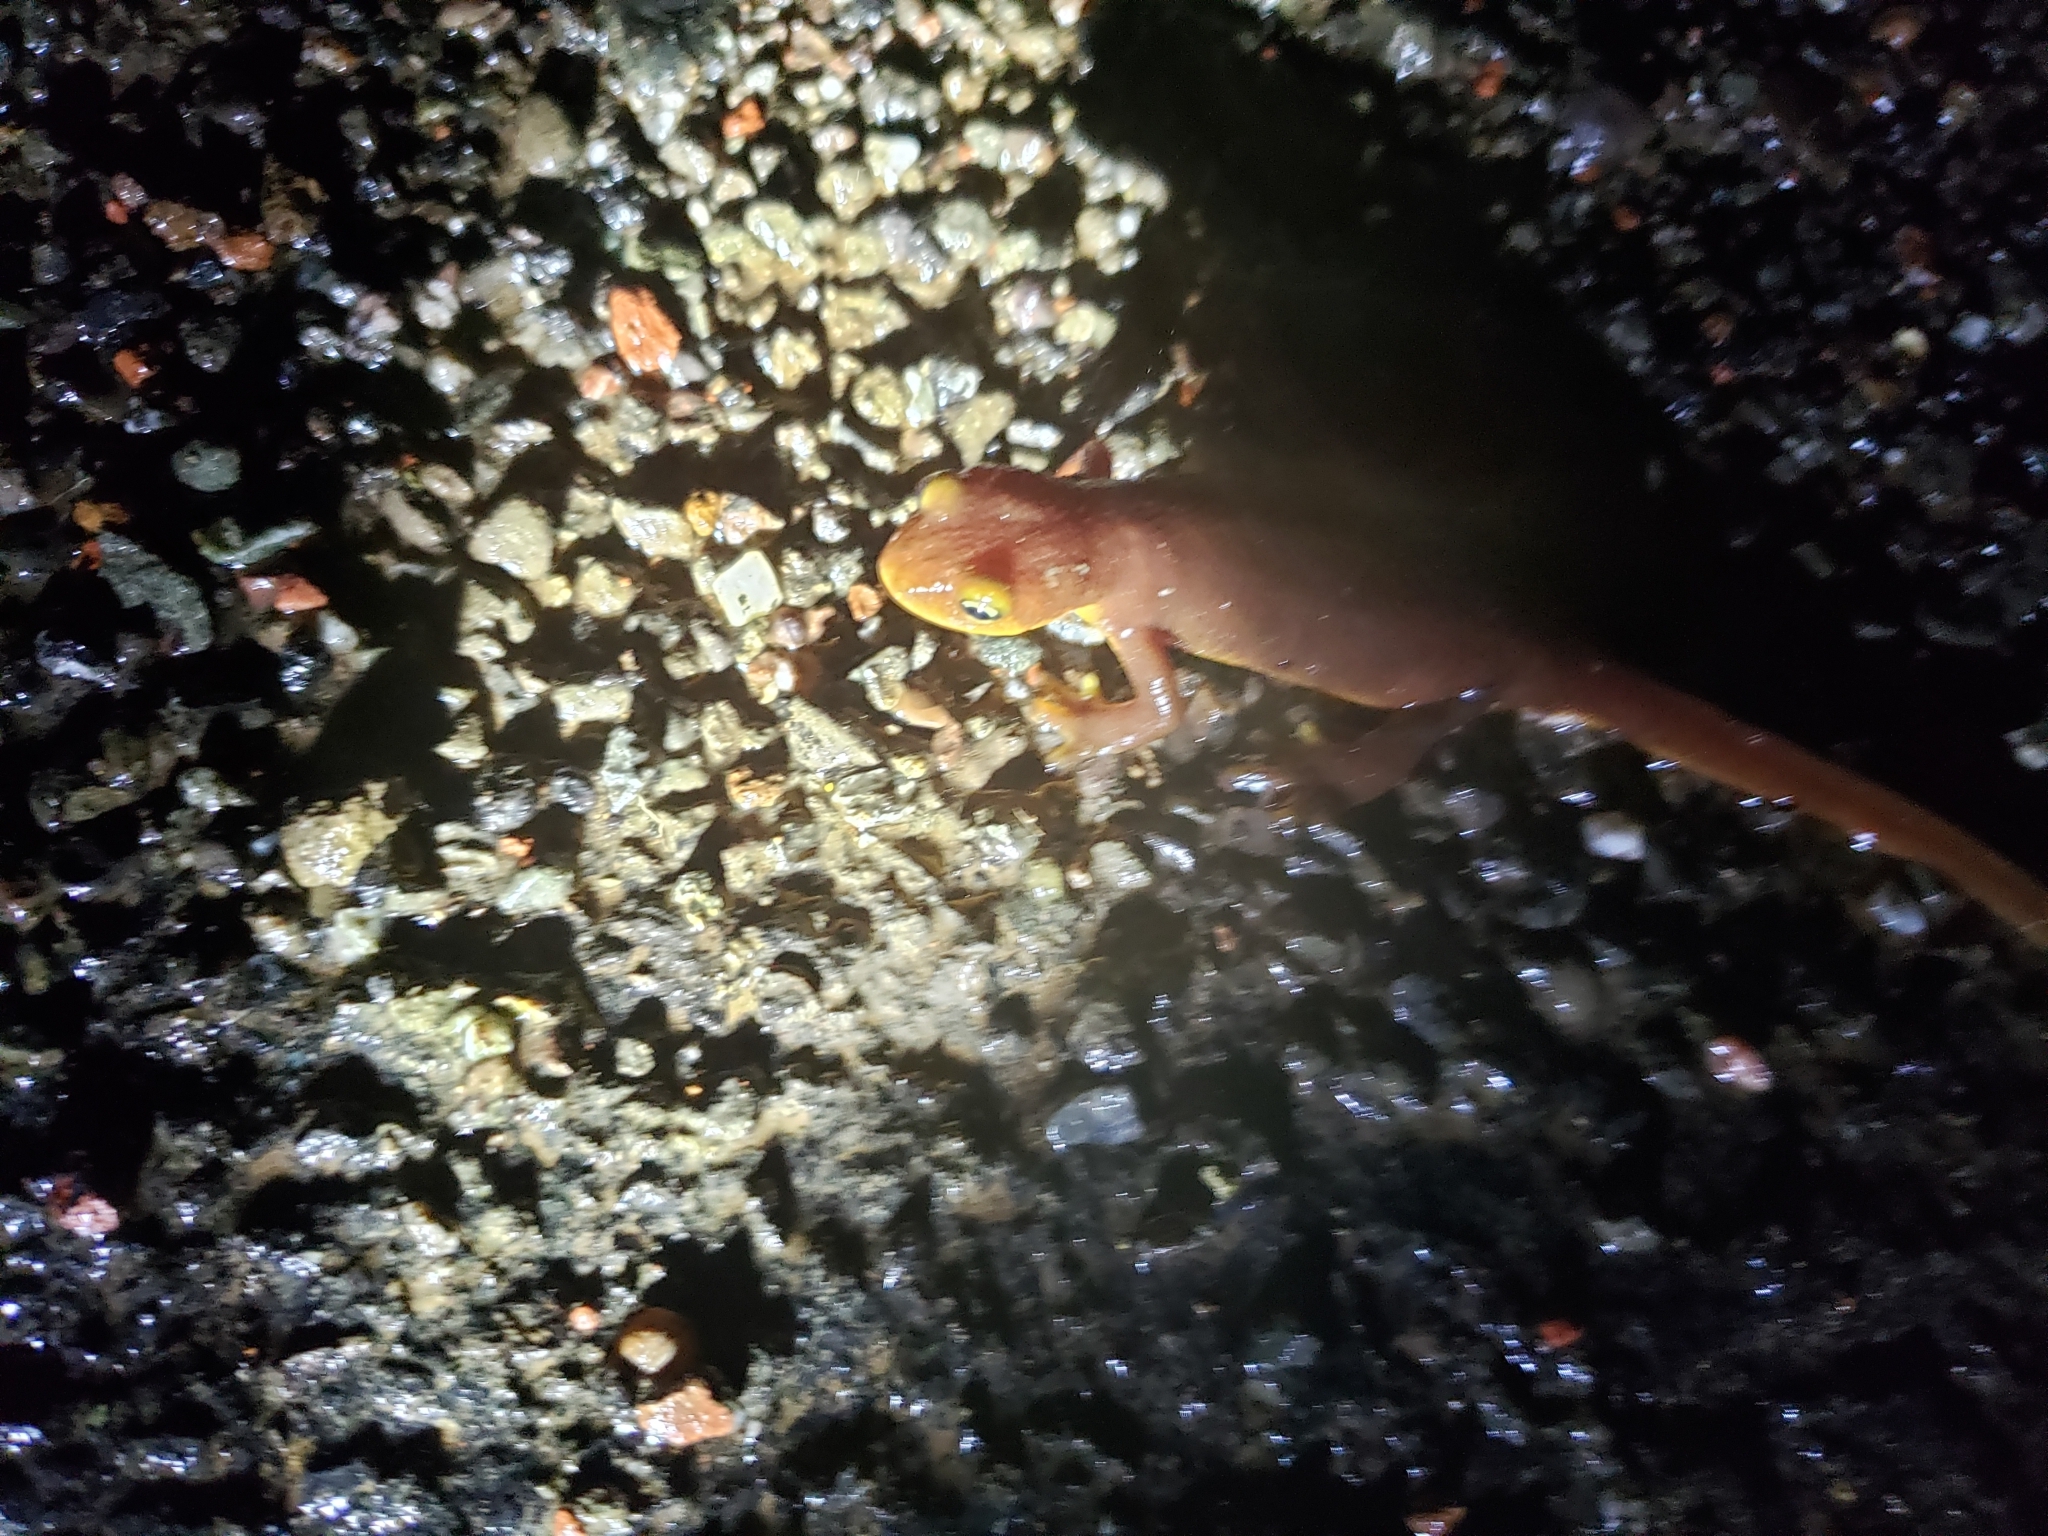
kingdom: Animalia
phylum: Chordata
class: Amphibia
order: Caudata
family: Salamandridae
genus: Taricha
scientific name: Taricha torosa
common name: California newt
